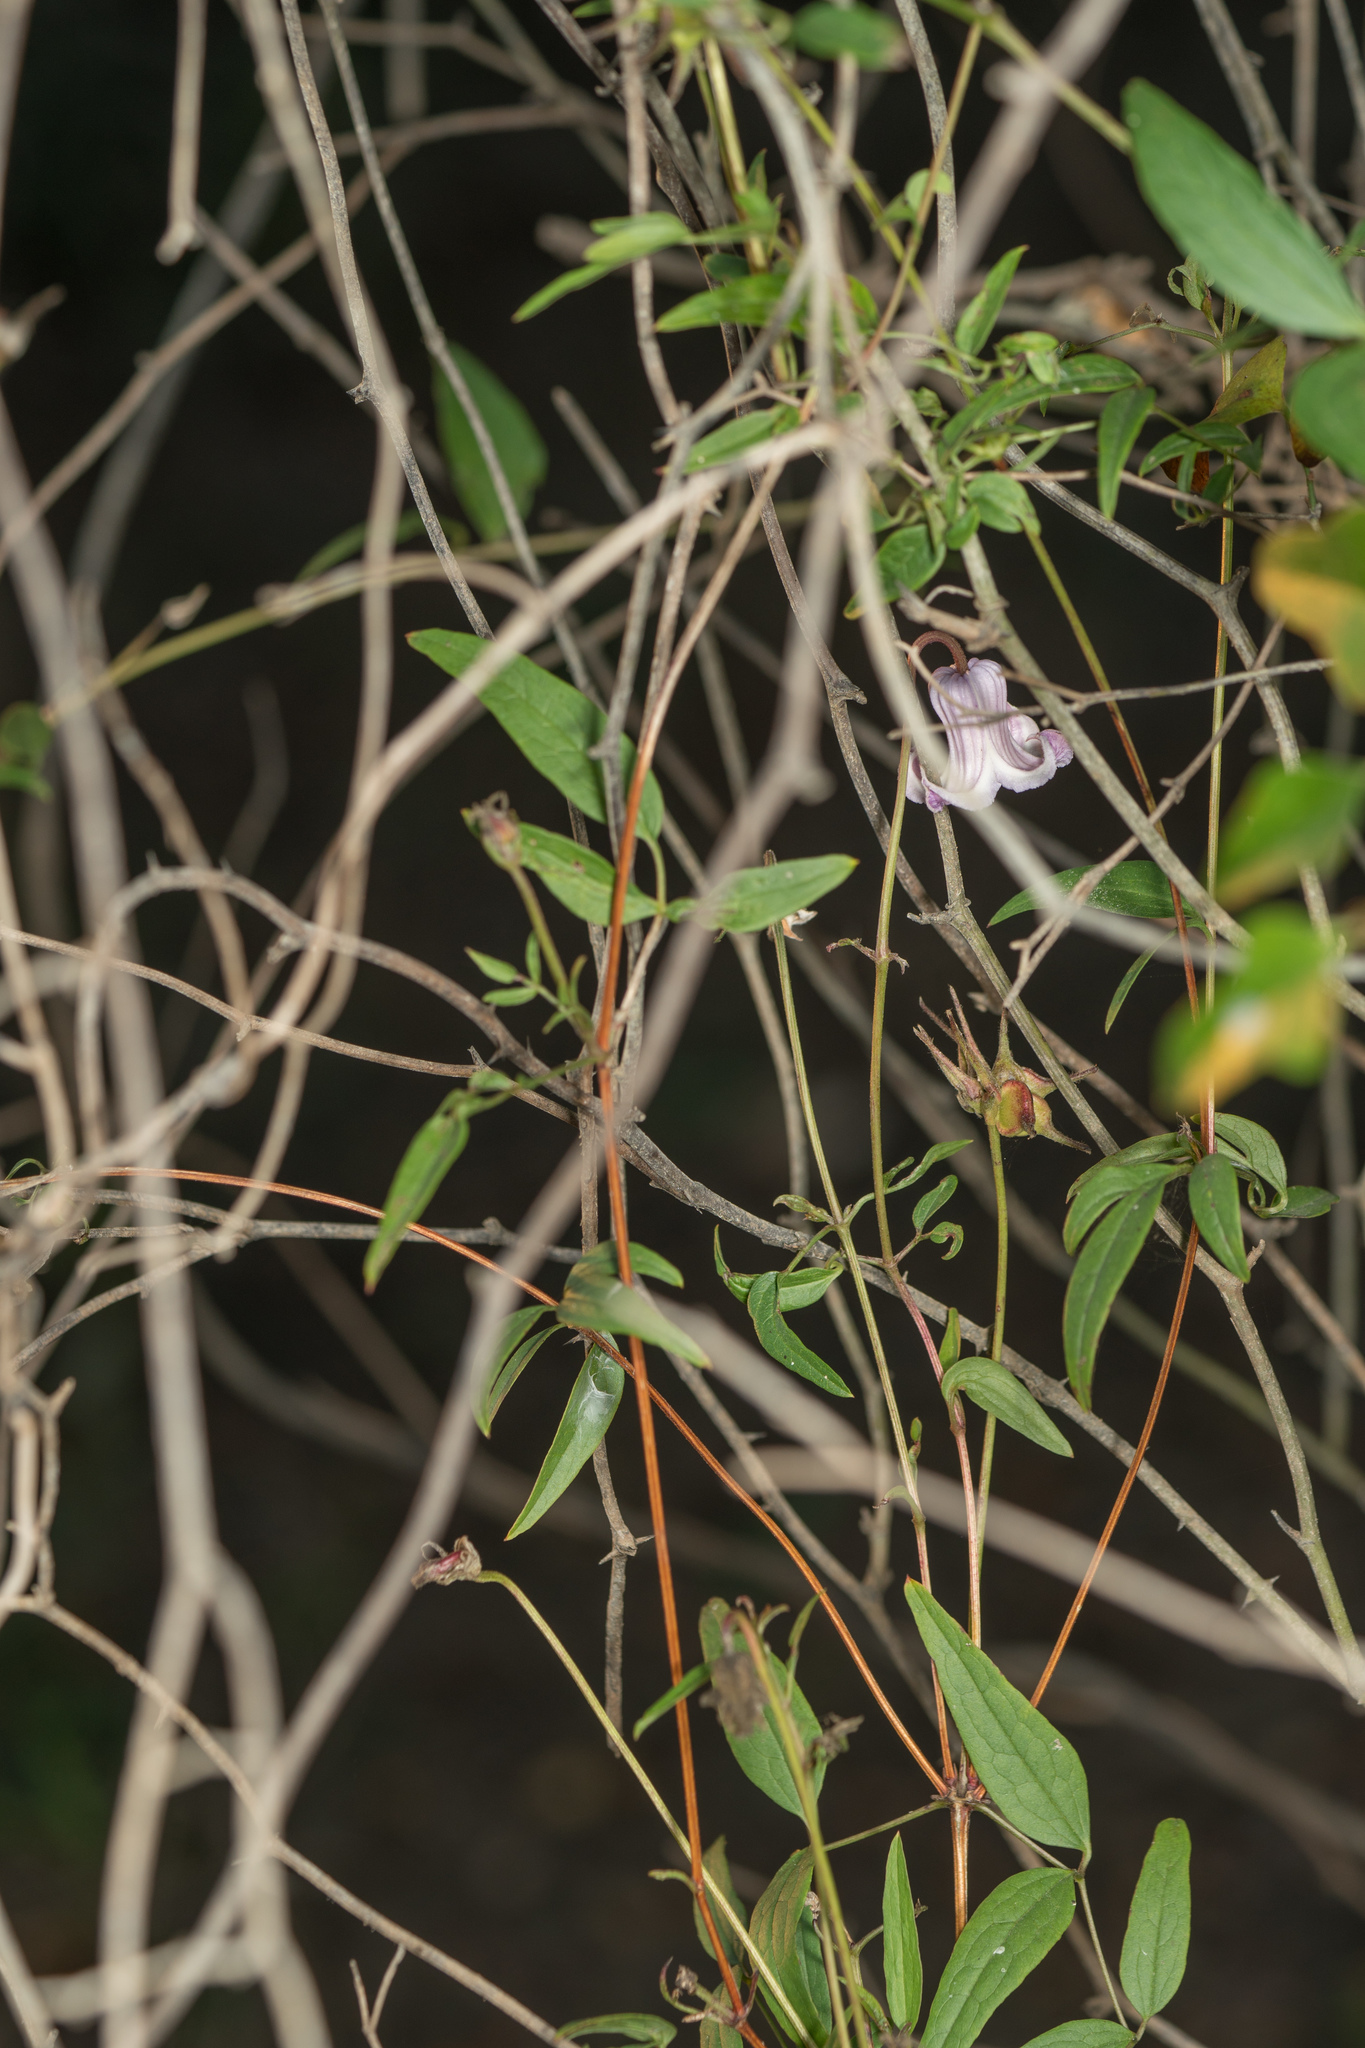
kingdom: Plantae
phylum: Tracheophyta
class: Magnoliopsida
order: Ranunculales
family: Ranunculaceae
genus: Clematis
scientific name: Clematis crispa
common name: Curly clematis
